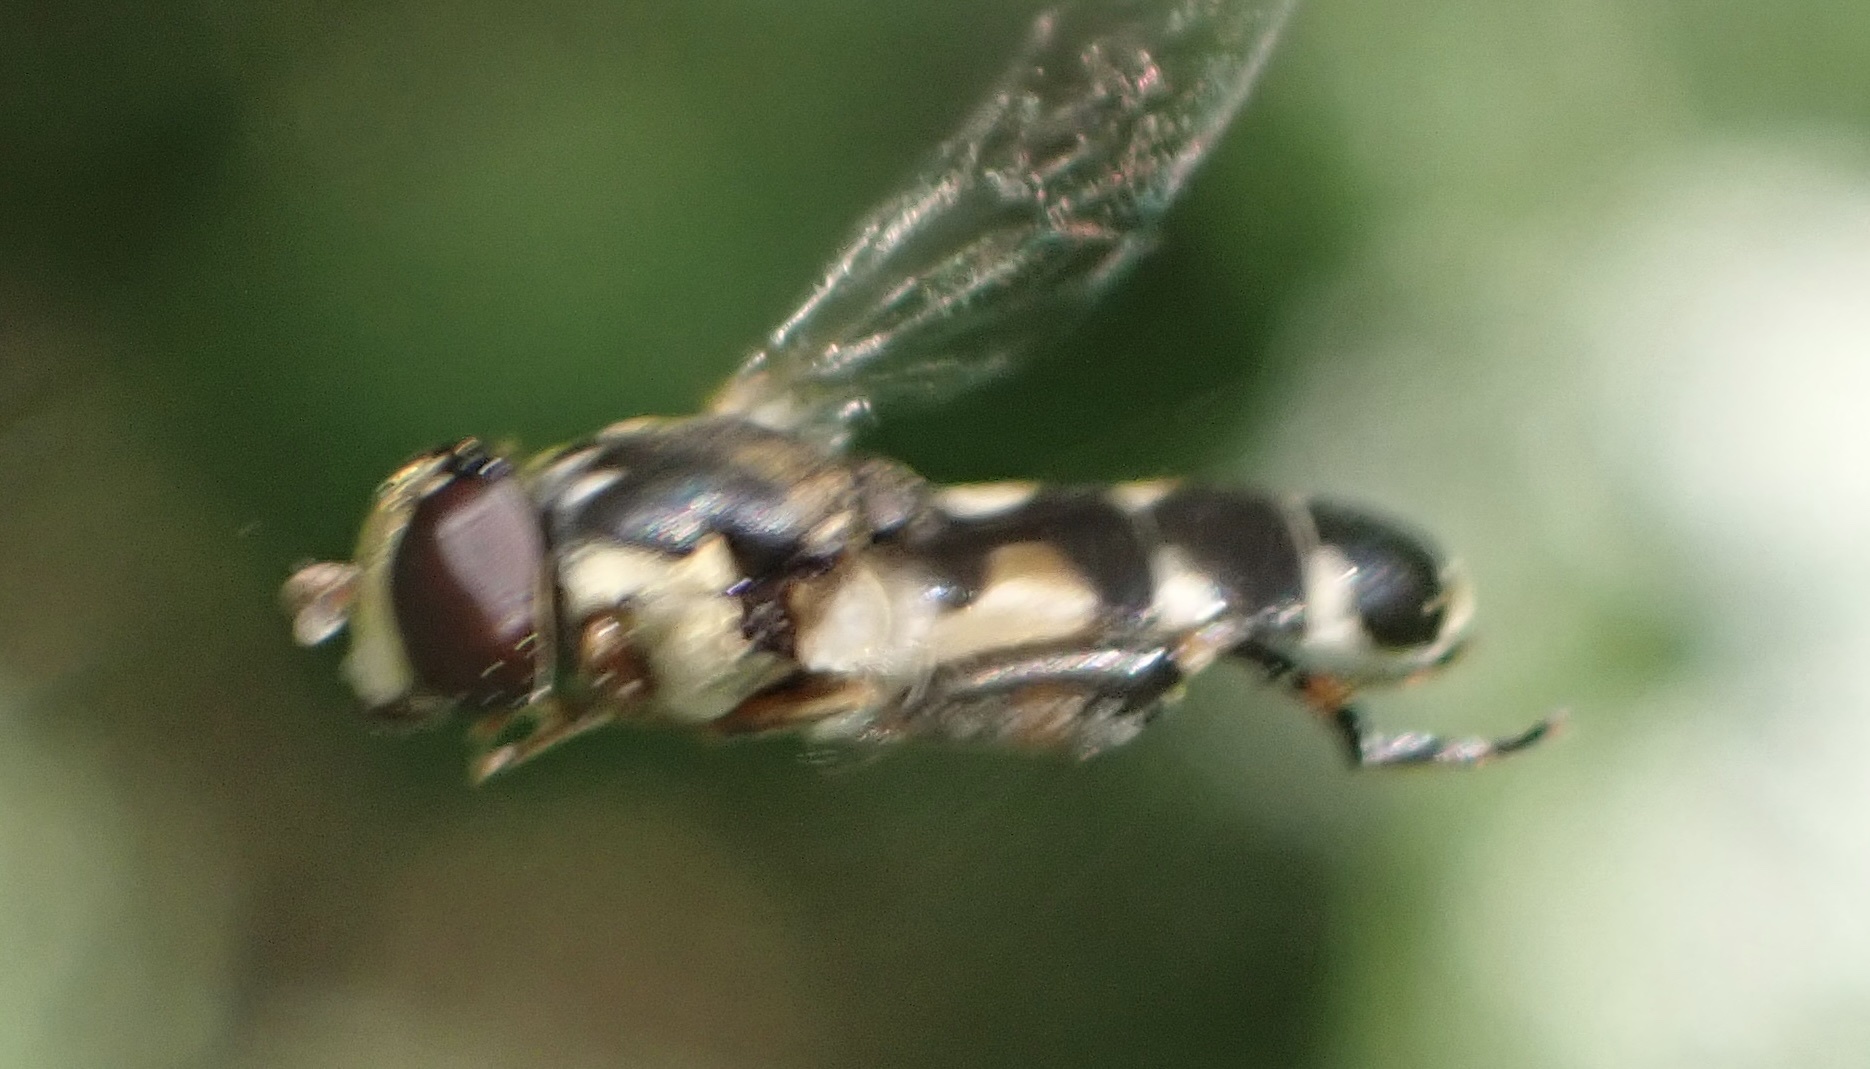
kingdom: Animalia
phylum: Arthropoda
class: Insecta
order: Diptera
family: Syrphidae
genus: Syritta
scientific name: Syritta pipiens
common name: Hover fly
